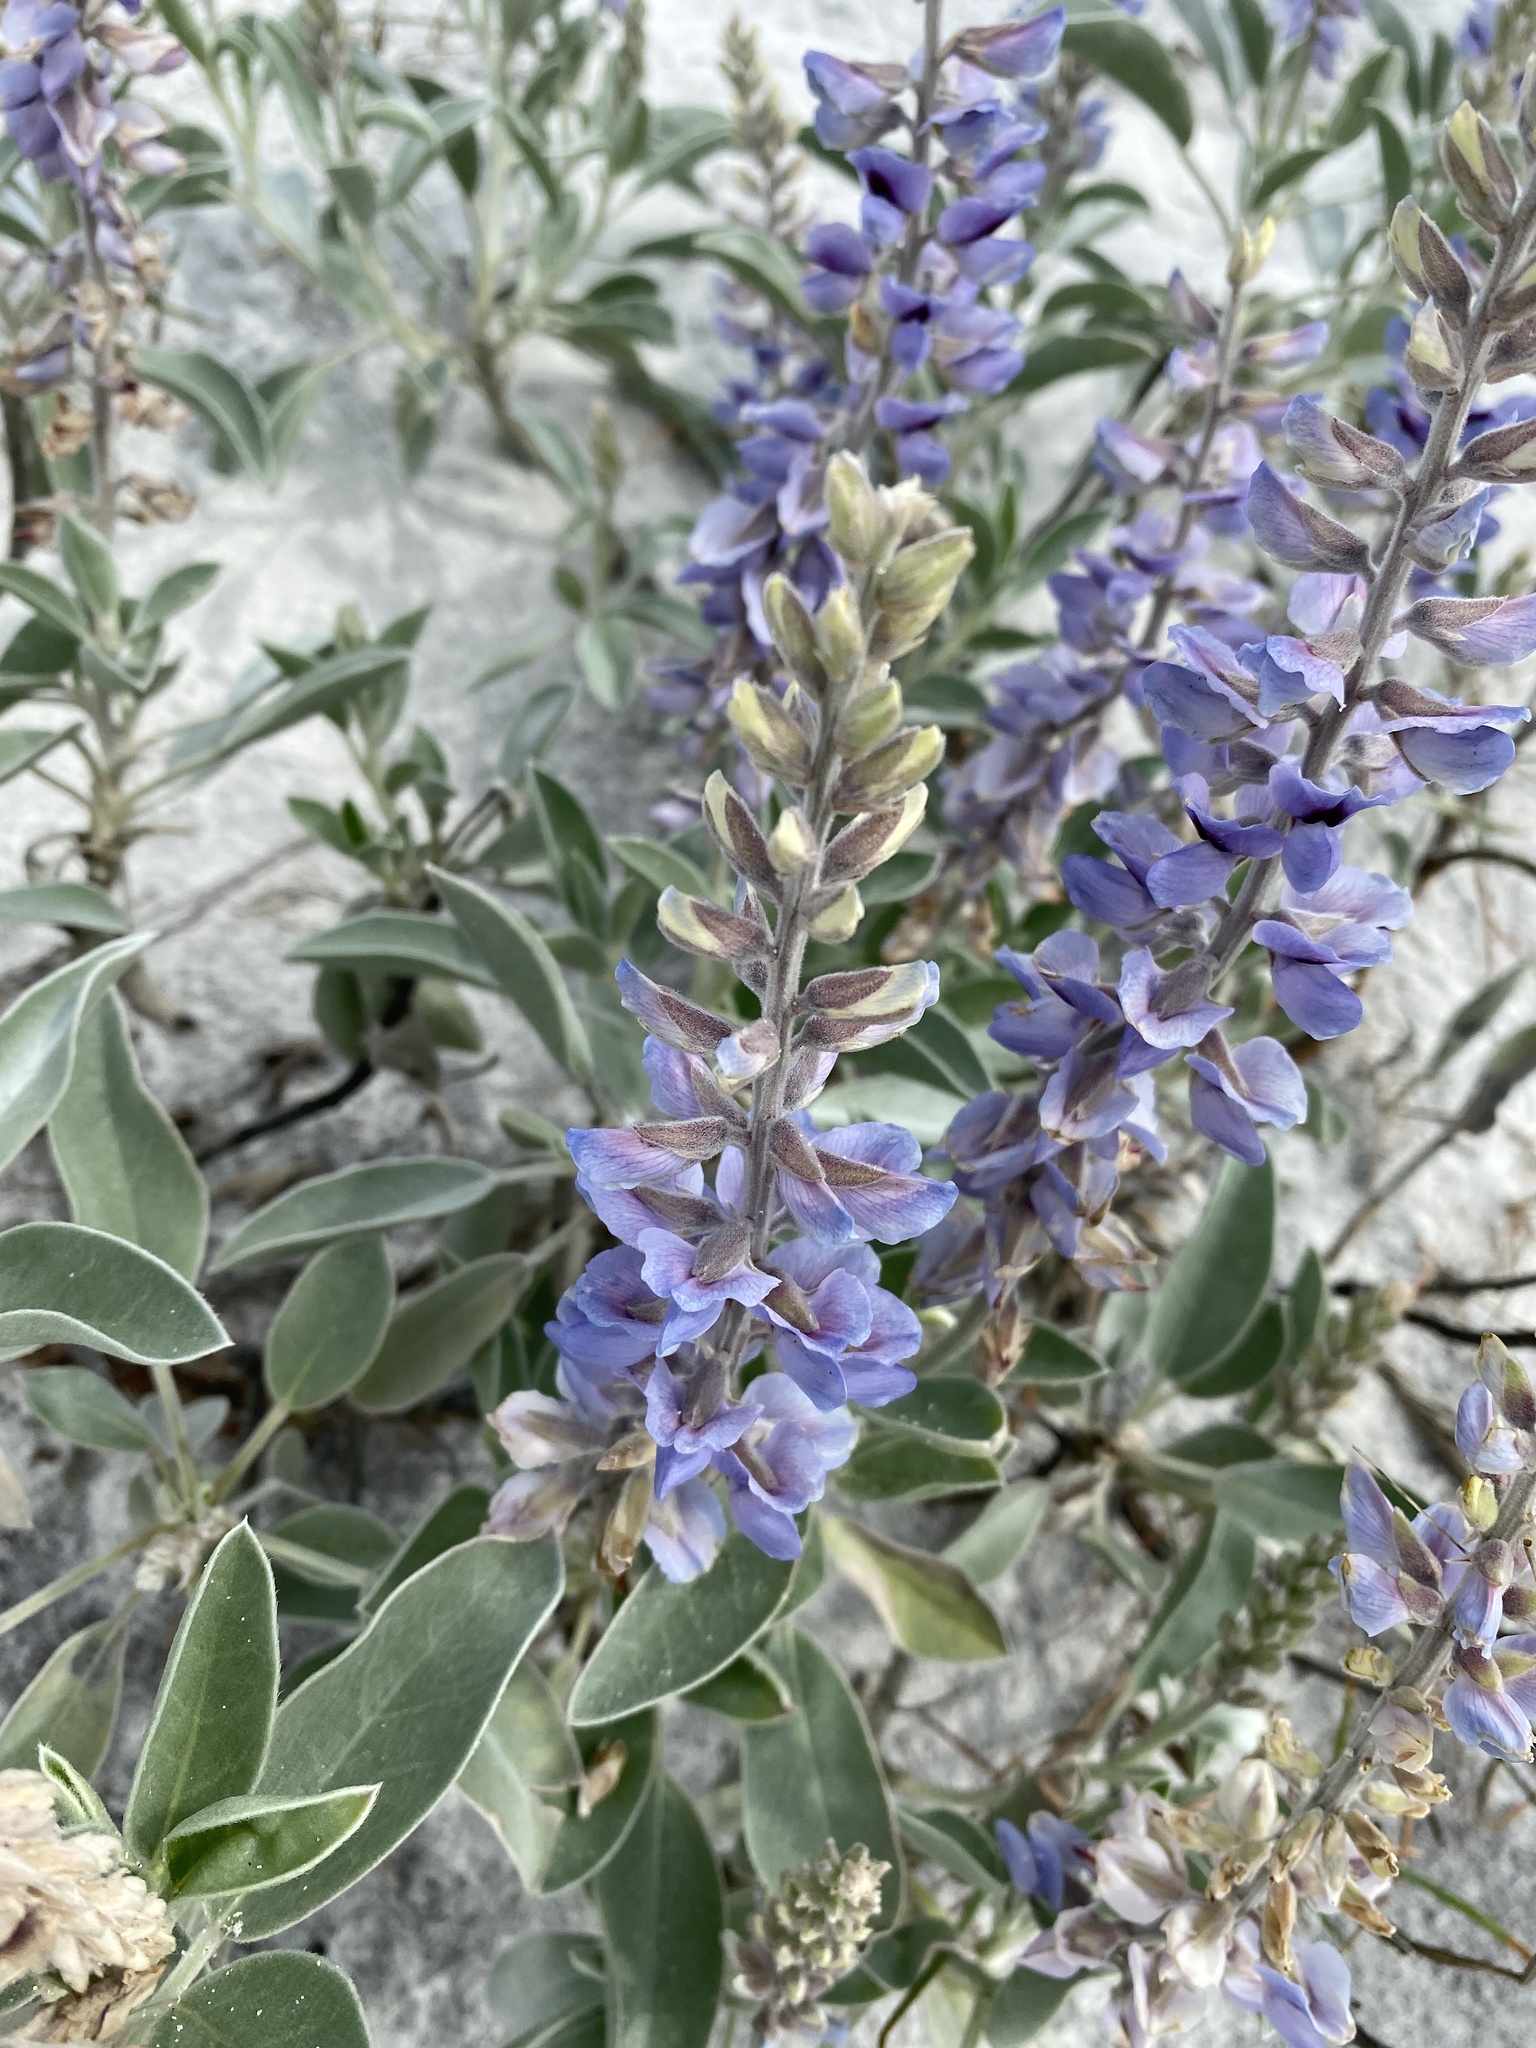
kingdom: Plantae
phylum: Tracheophyta
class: Magnoliopsida
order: Fabales
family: Fabaceae
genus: Lupinus
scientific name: Lupinus westianus
